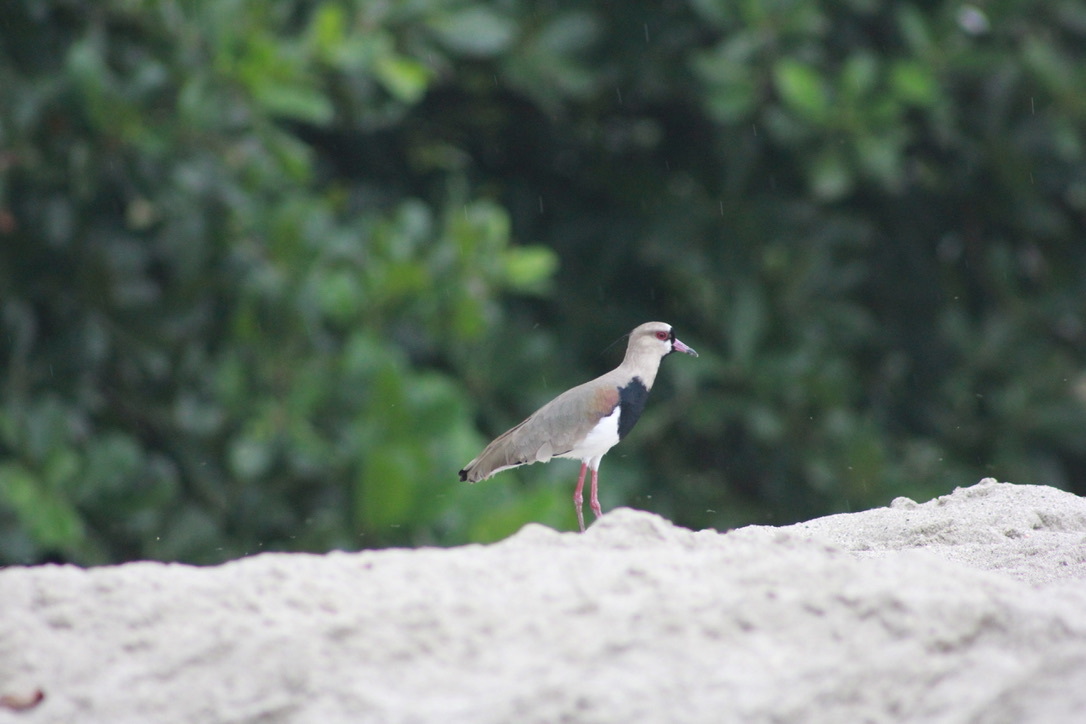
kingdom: Animalia
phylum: Chordata
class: Aves
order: Charadriiformes
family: Charadriidae
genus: Vanellus
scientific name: Vanellus chilensis
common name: Southern lapwing
